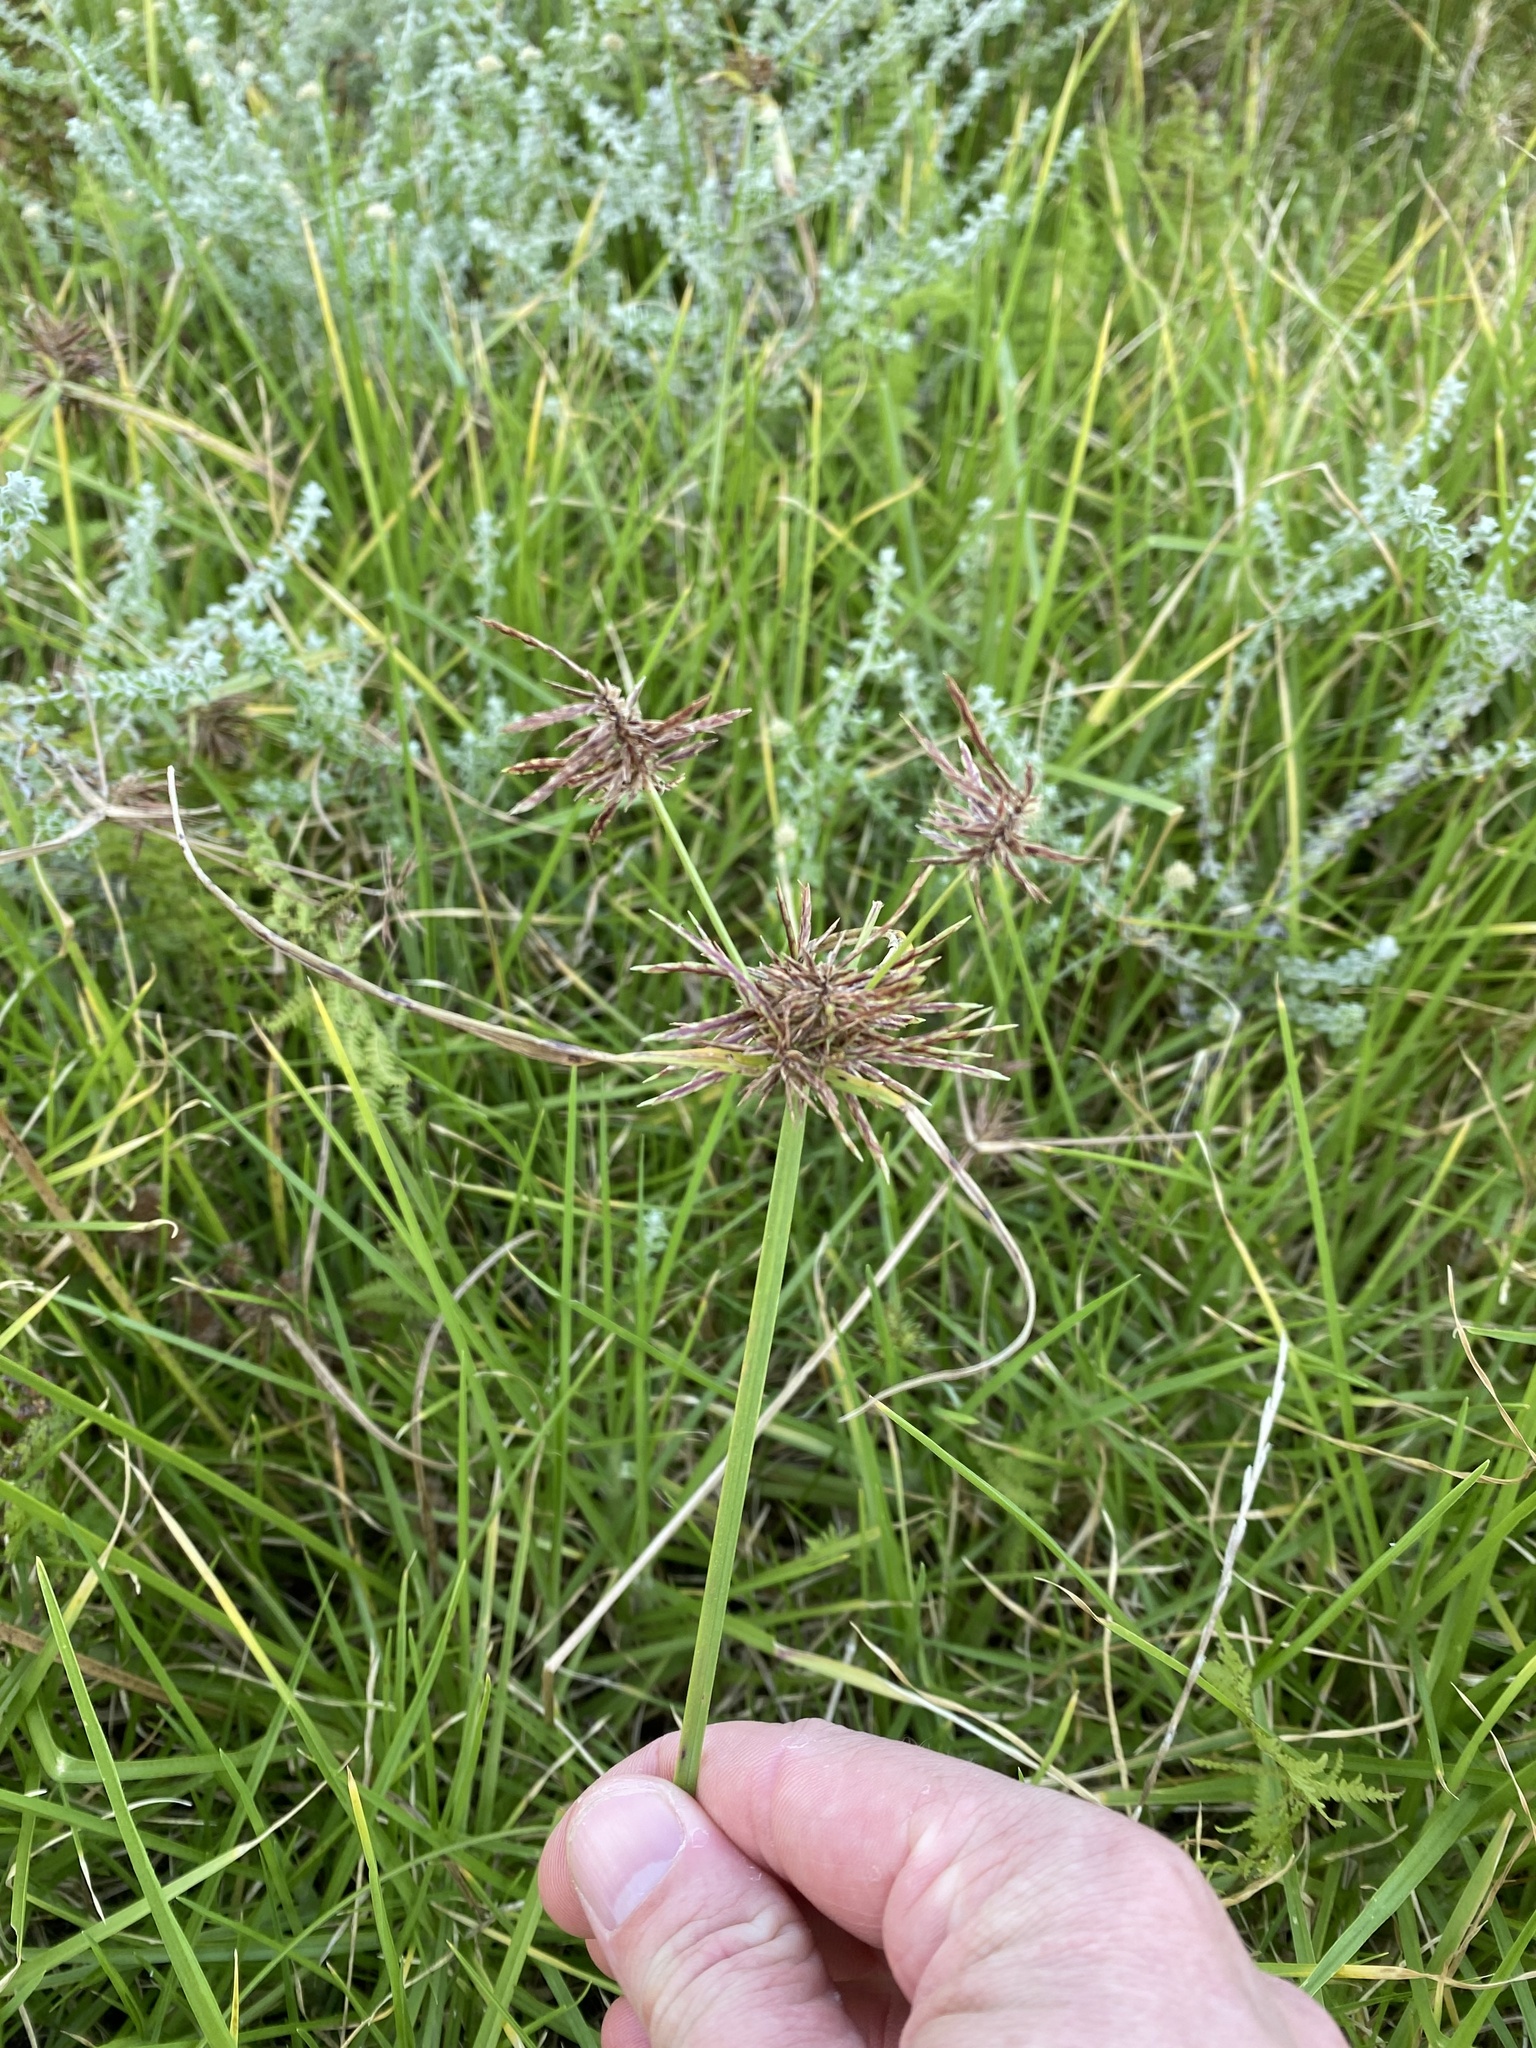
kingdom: Plantae
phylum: Tracheophyta
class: Liliopsida
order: Poales
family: Cyperaceae
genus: Cyperus
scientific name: Cyperus congestus
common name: Dense flat sedge
